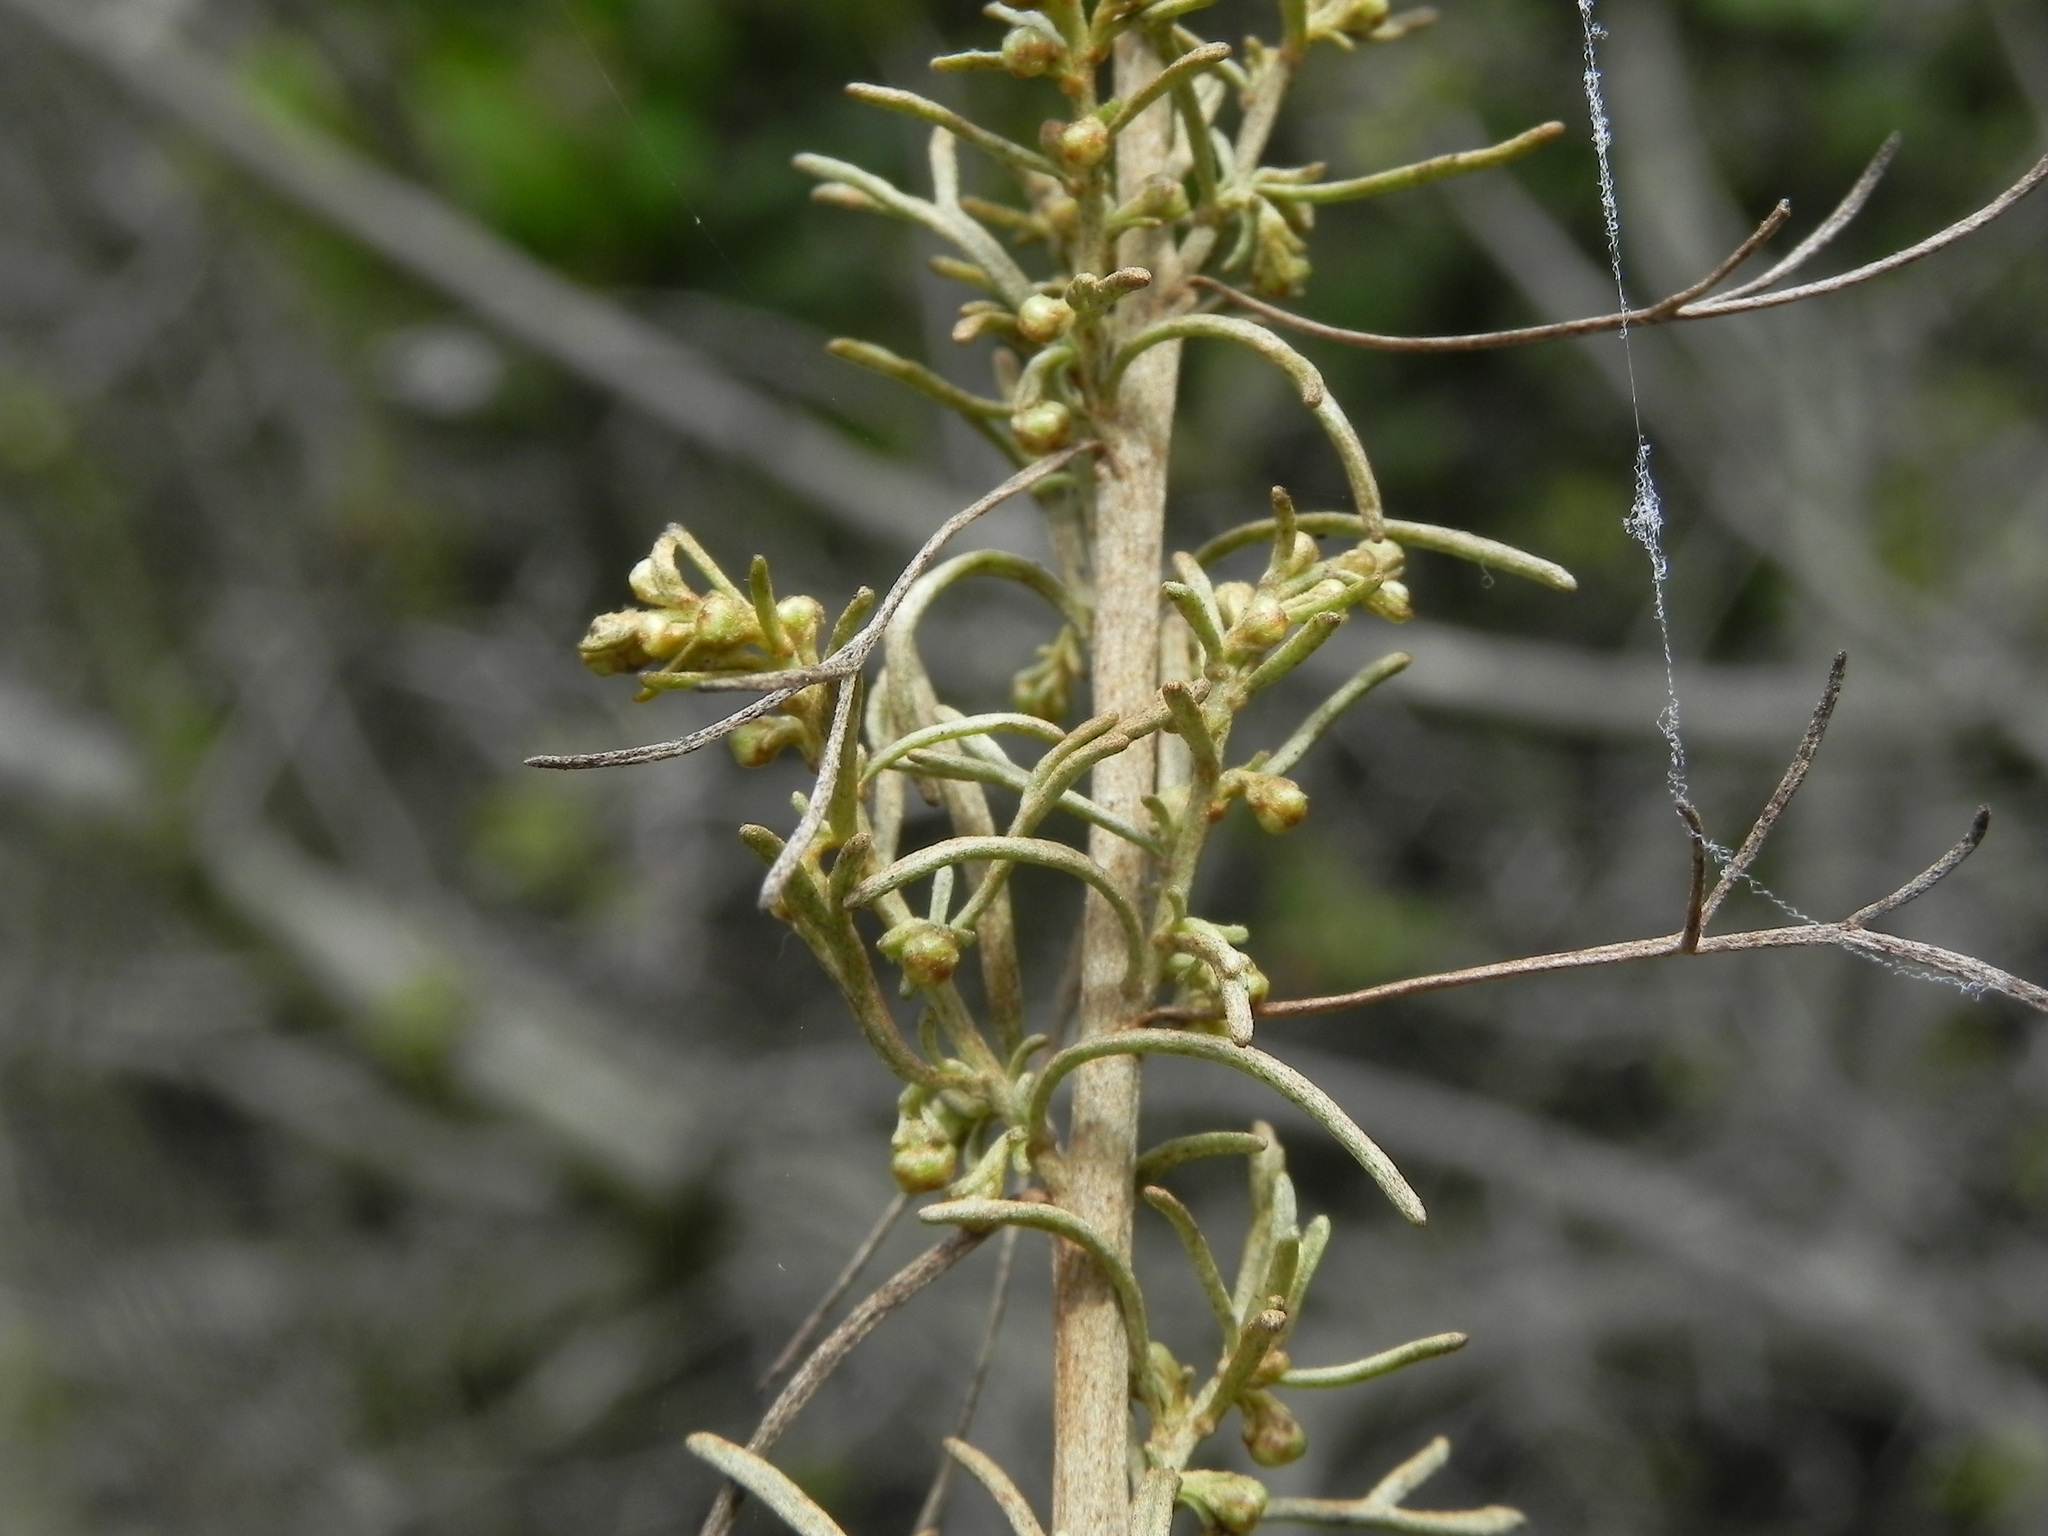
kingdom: Plantae
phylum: Tracheophyta
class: Magnoliopsida
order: Asterales
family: Asteraceae
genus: Artemisia
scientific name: Artemisia californica
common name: California sagebrush
